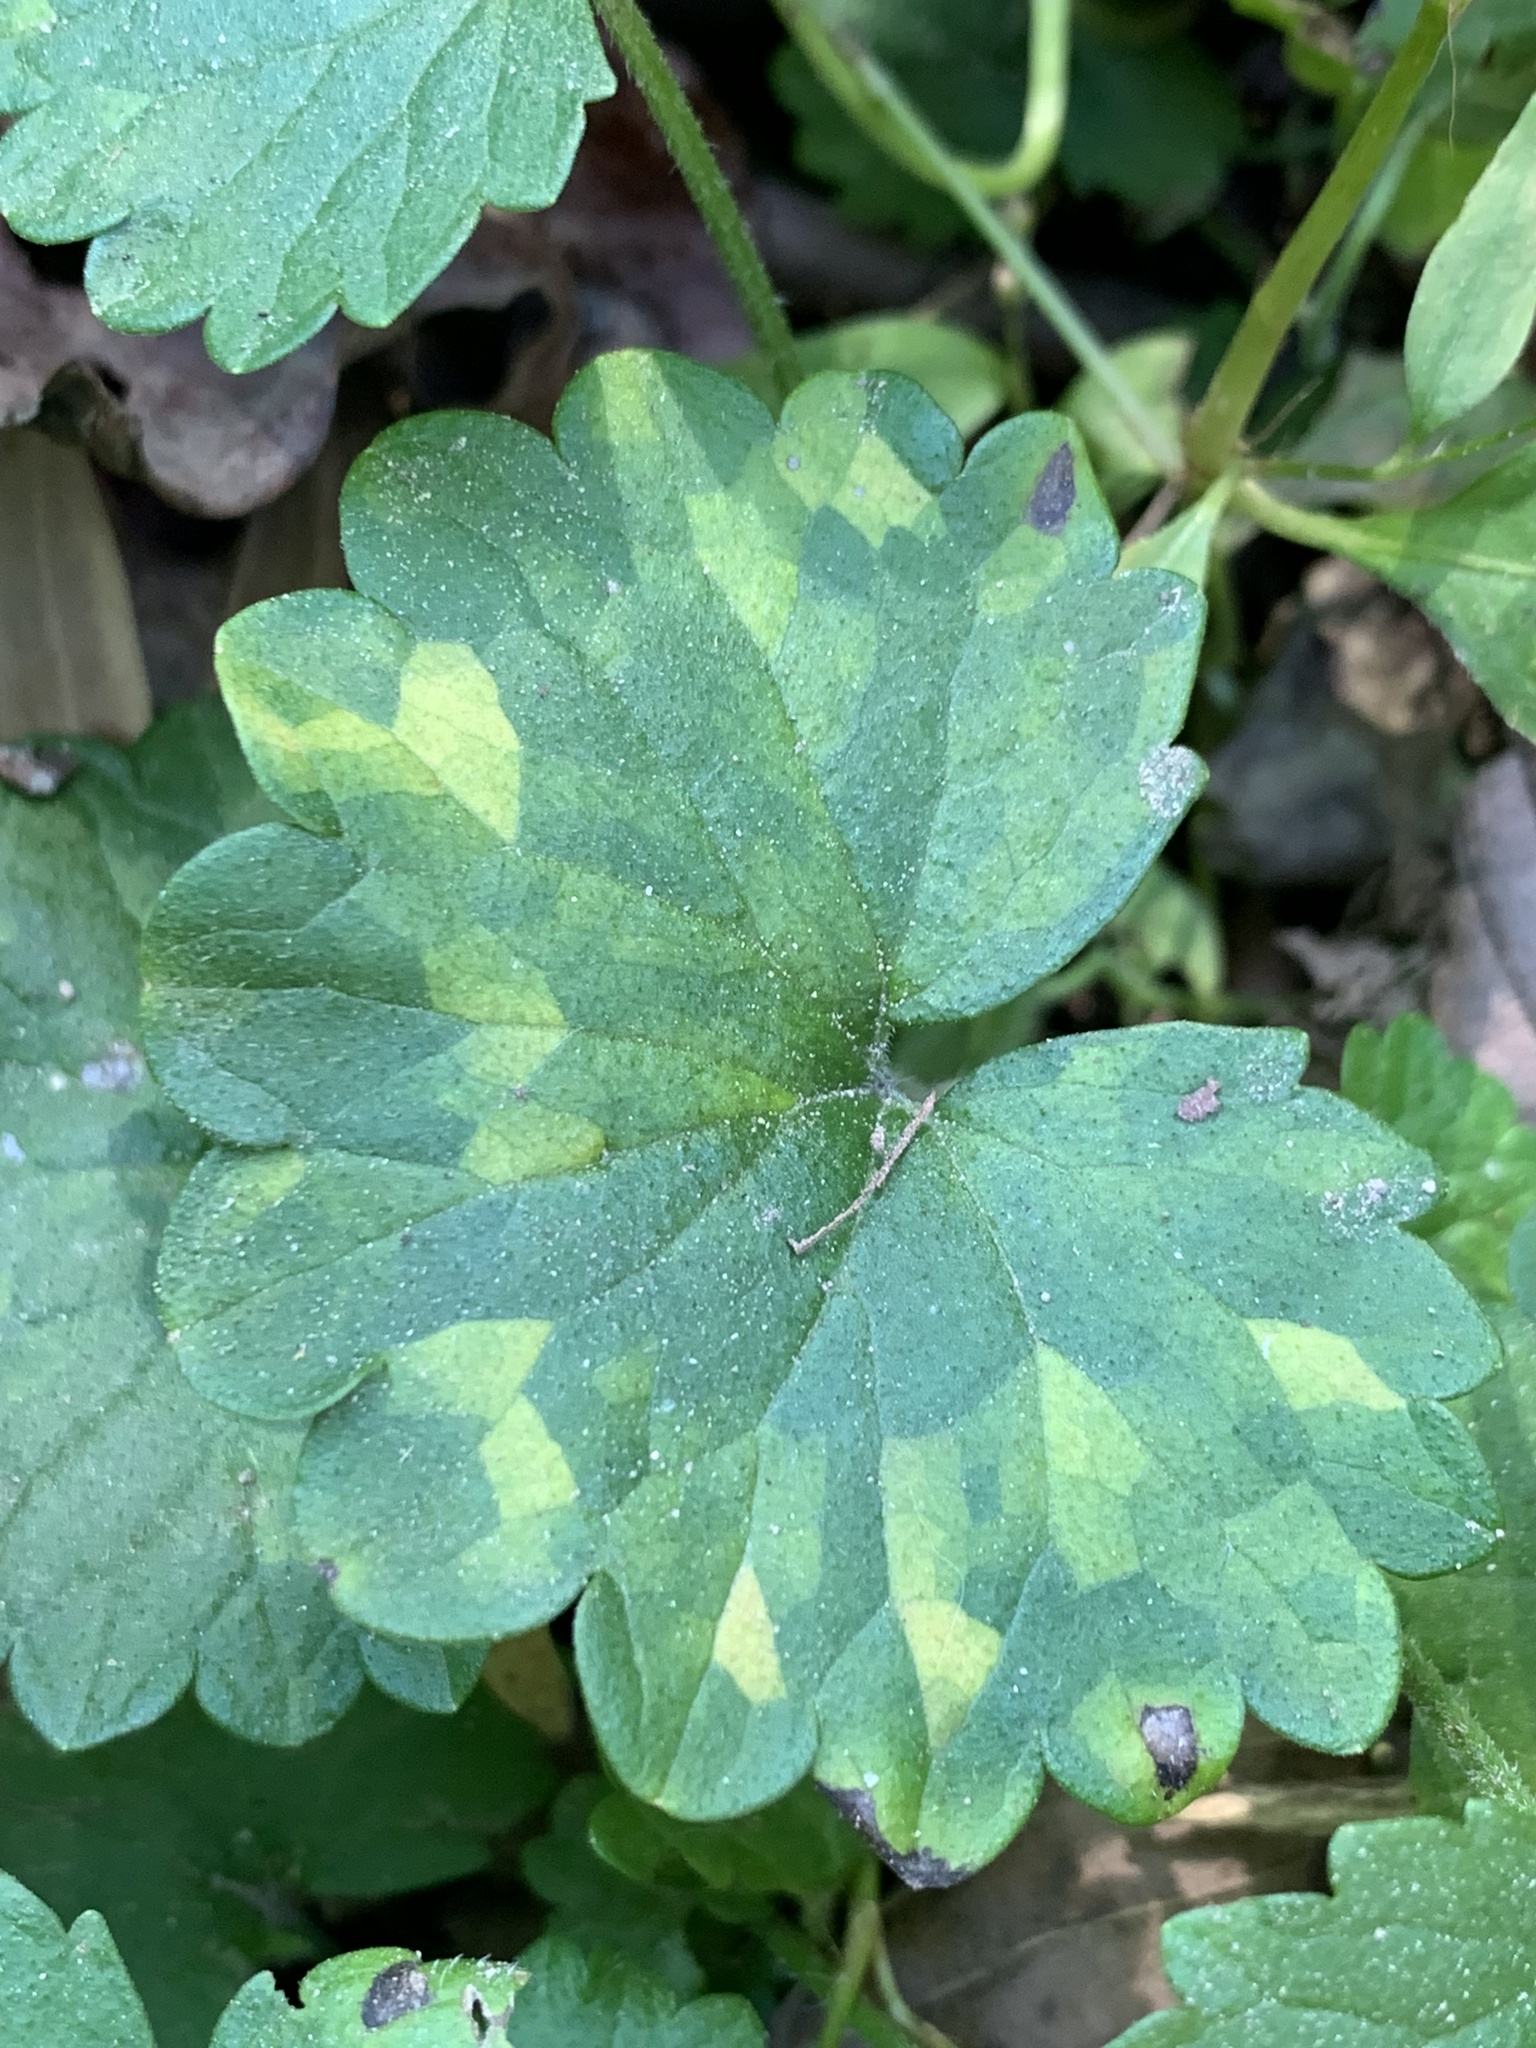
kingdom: Plantae
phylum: Tracheophyta
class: Magnoliopsida
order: Lamiales
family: Lamiaceae
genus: Glechoma
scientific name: Glechoma hederacea
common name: Ground ivy
